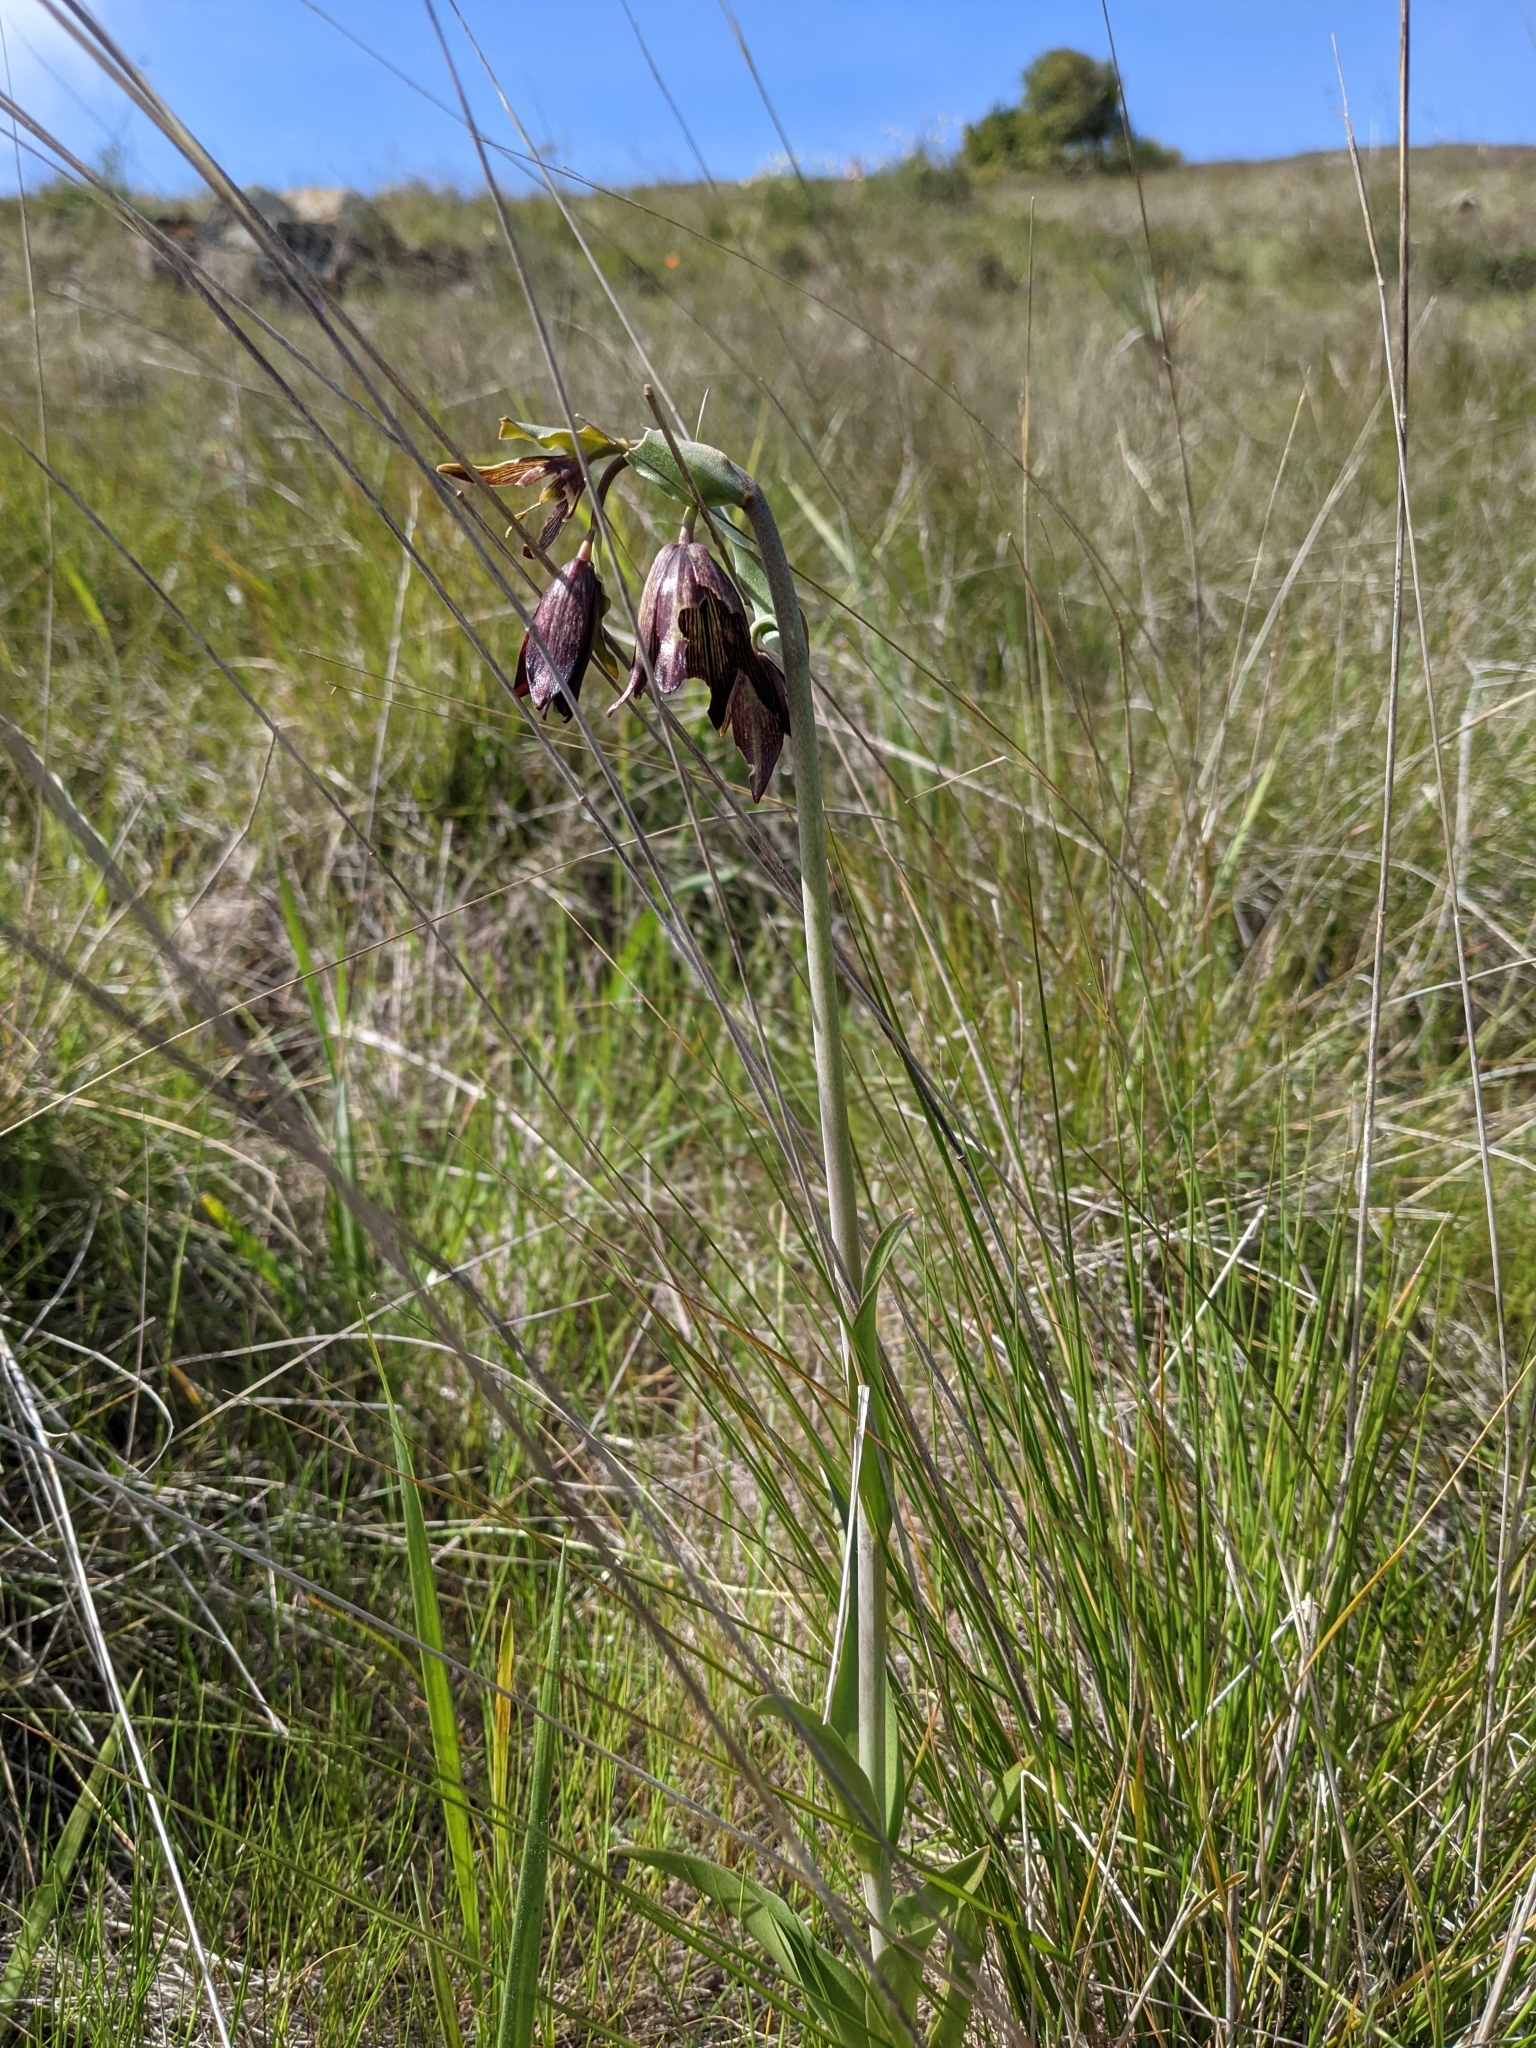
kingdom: Plantae
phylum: Tracheophyta
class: Liliopsida
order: Liliales
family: Liliaceae
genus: Fritillaria
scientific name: Fritillaria biflora
